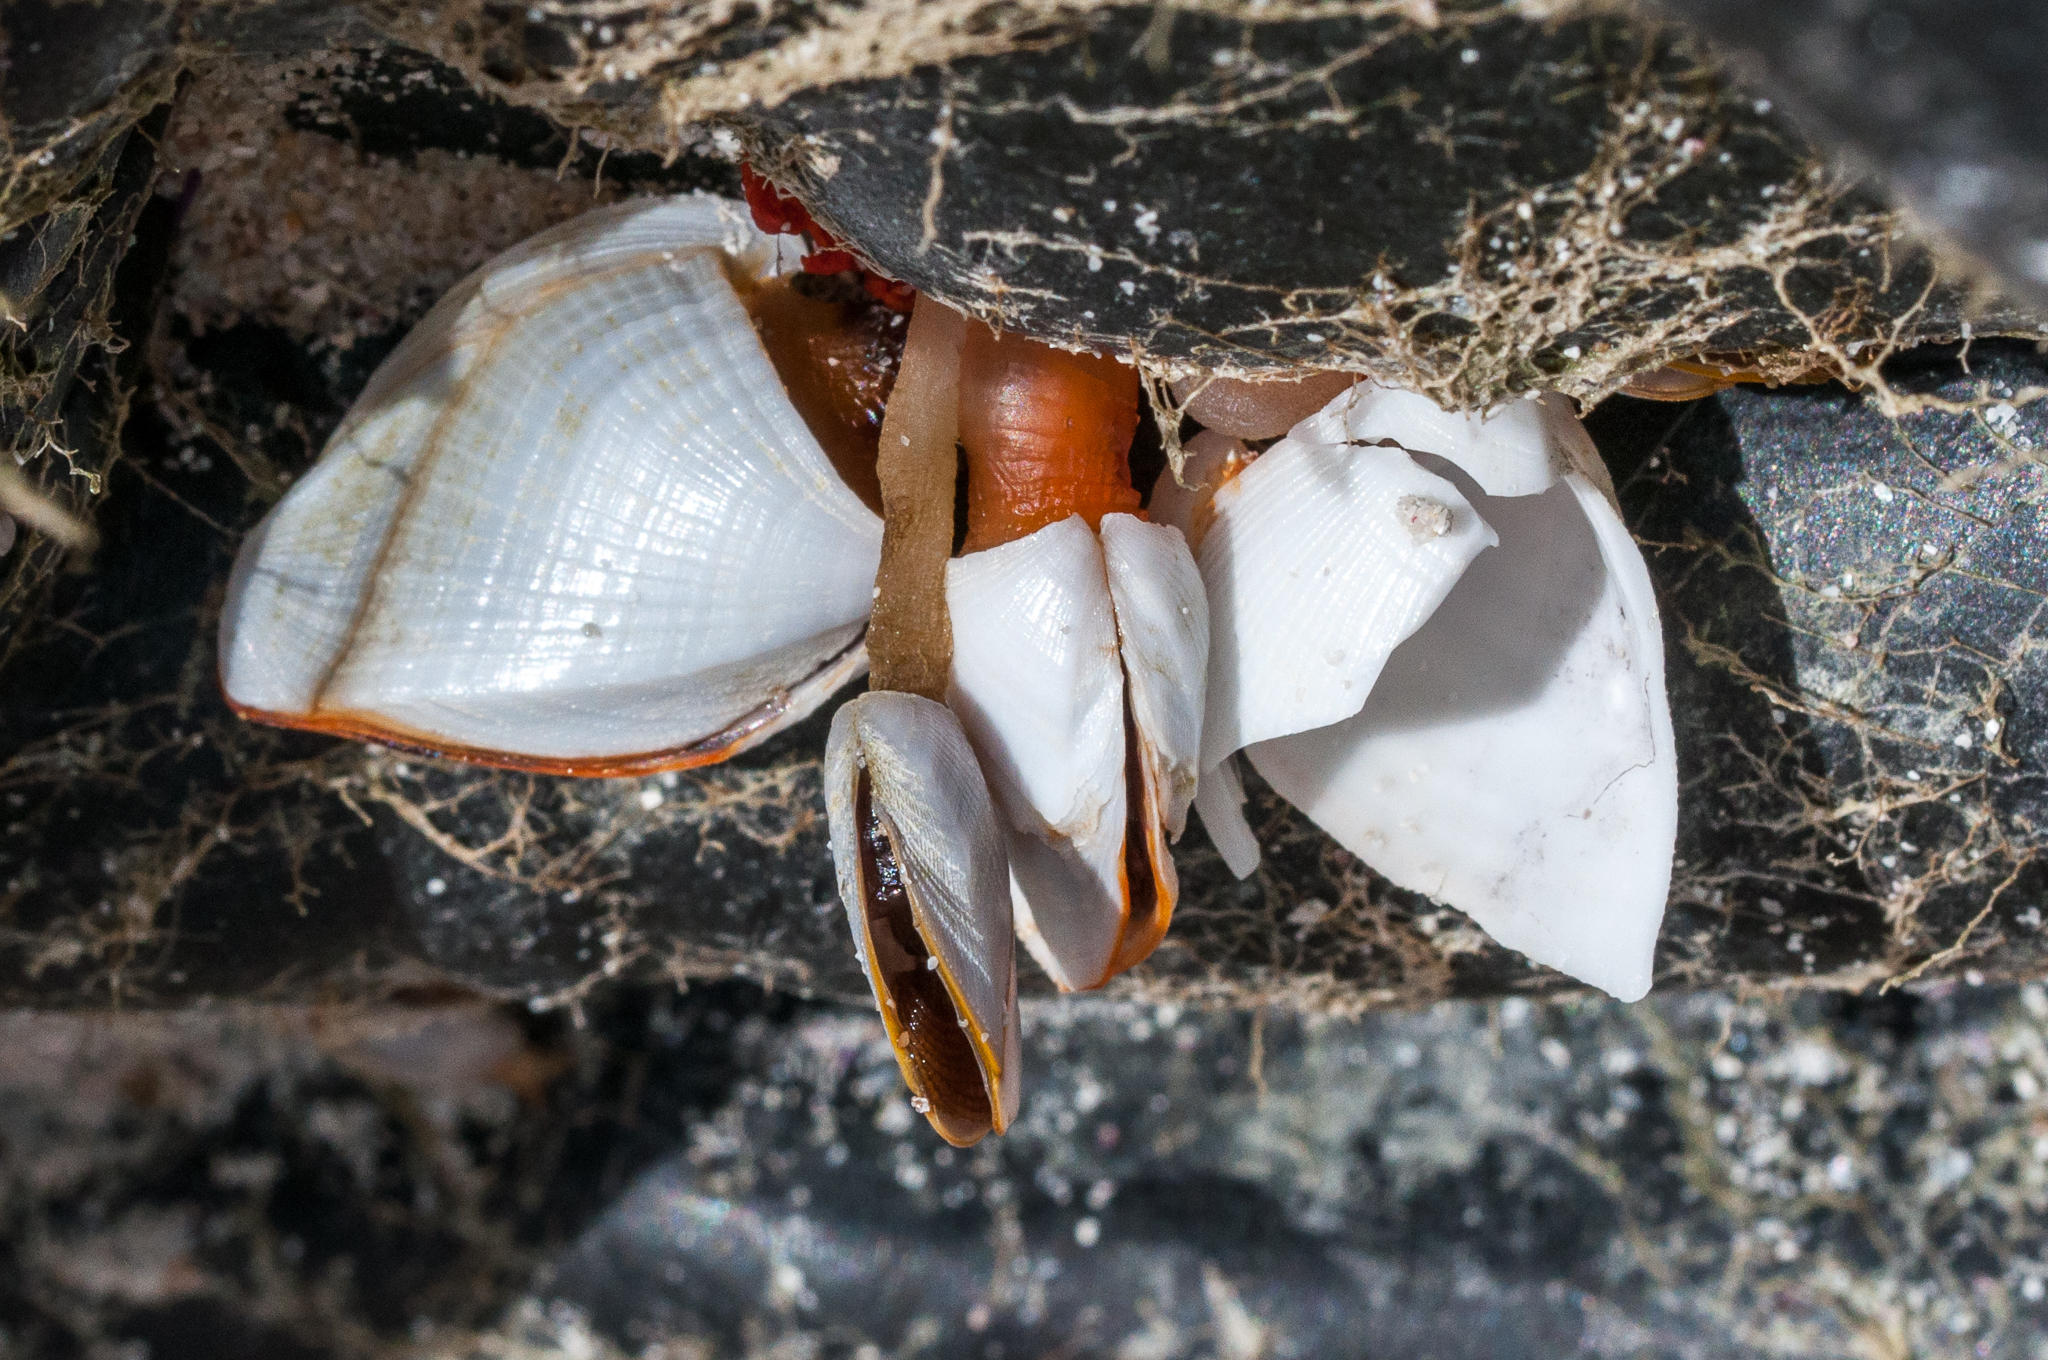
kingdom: Animalia
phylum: Arthropoda
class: Maxillopoda
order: Pedunculata
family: Lepadidae
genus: Lepas
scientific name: Lepas anserifera
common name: Goose barnacle
